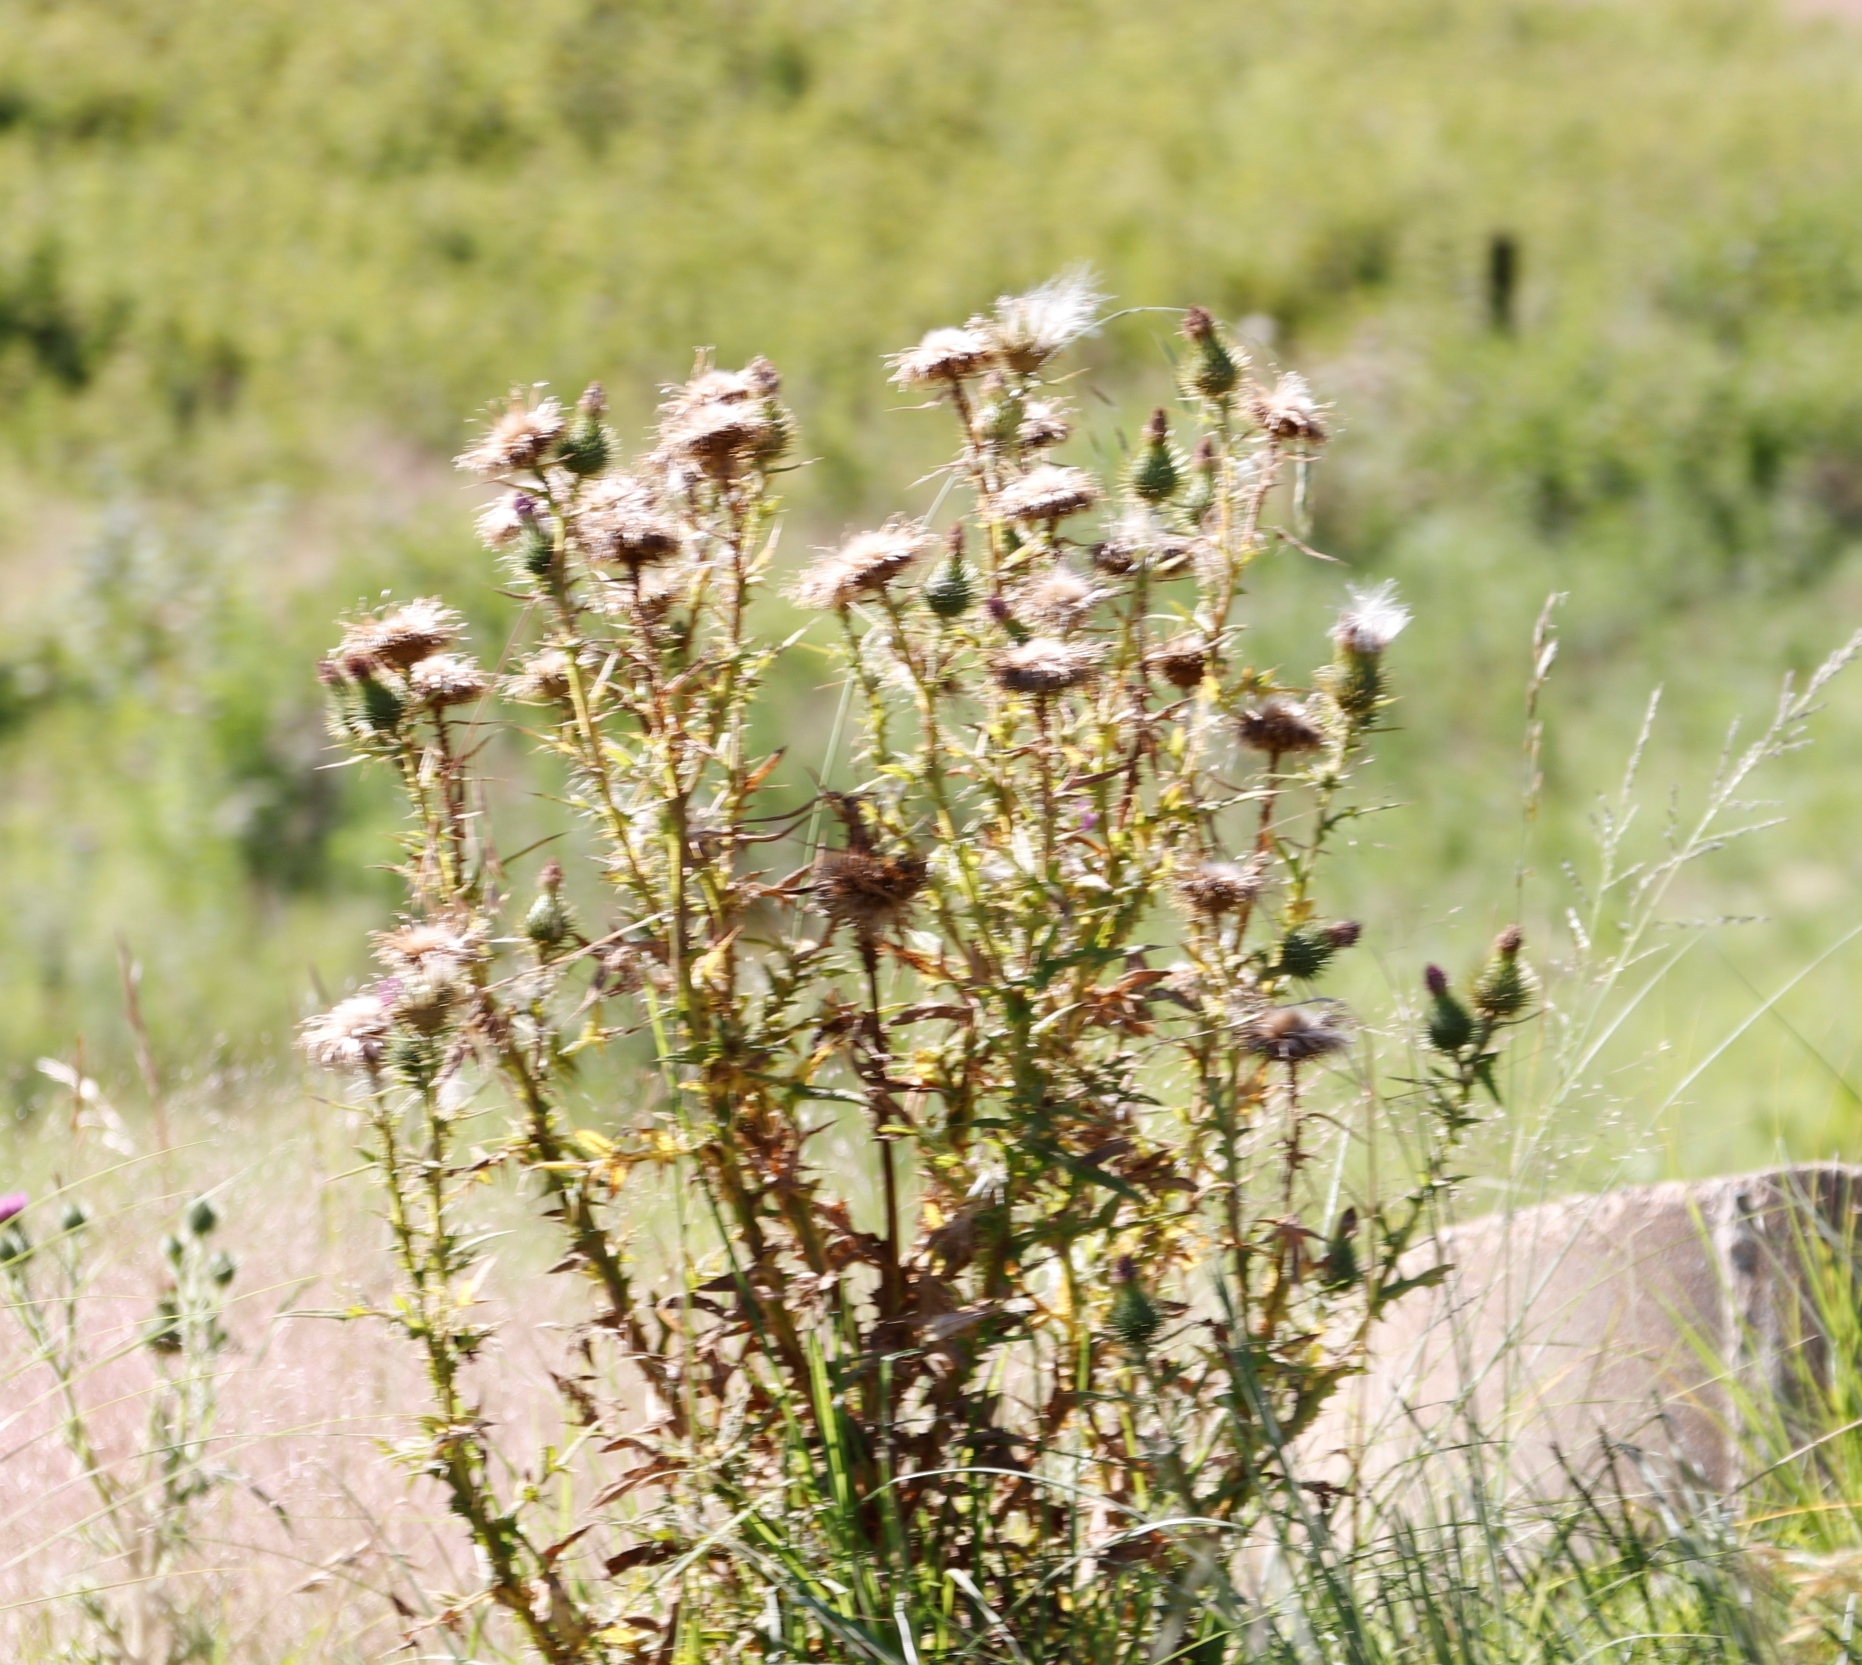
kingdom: Plantae
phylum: Tracheophyta
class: Magnoliopsida
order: Asterales
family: Asteraceae
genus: Cirsium
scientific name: Cirsium vulgare
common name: Bull thistle
